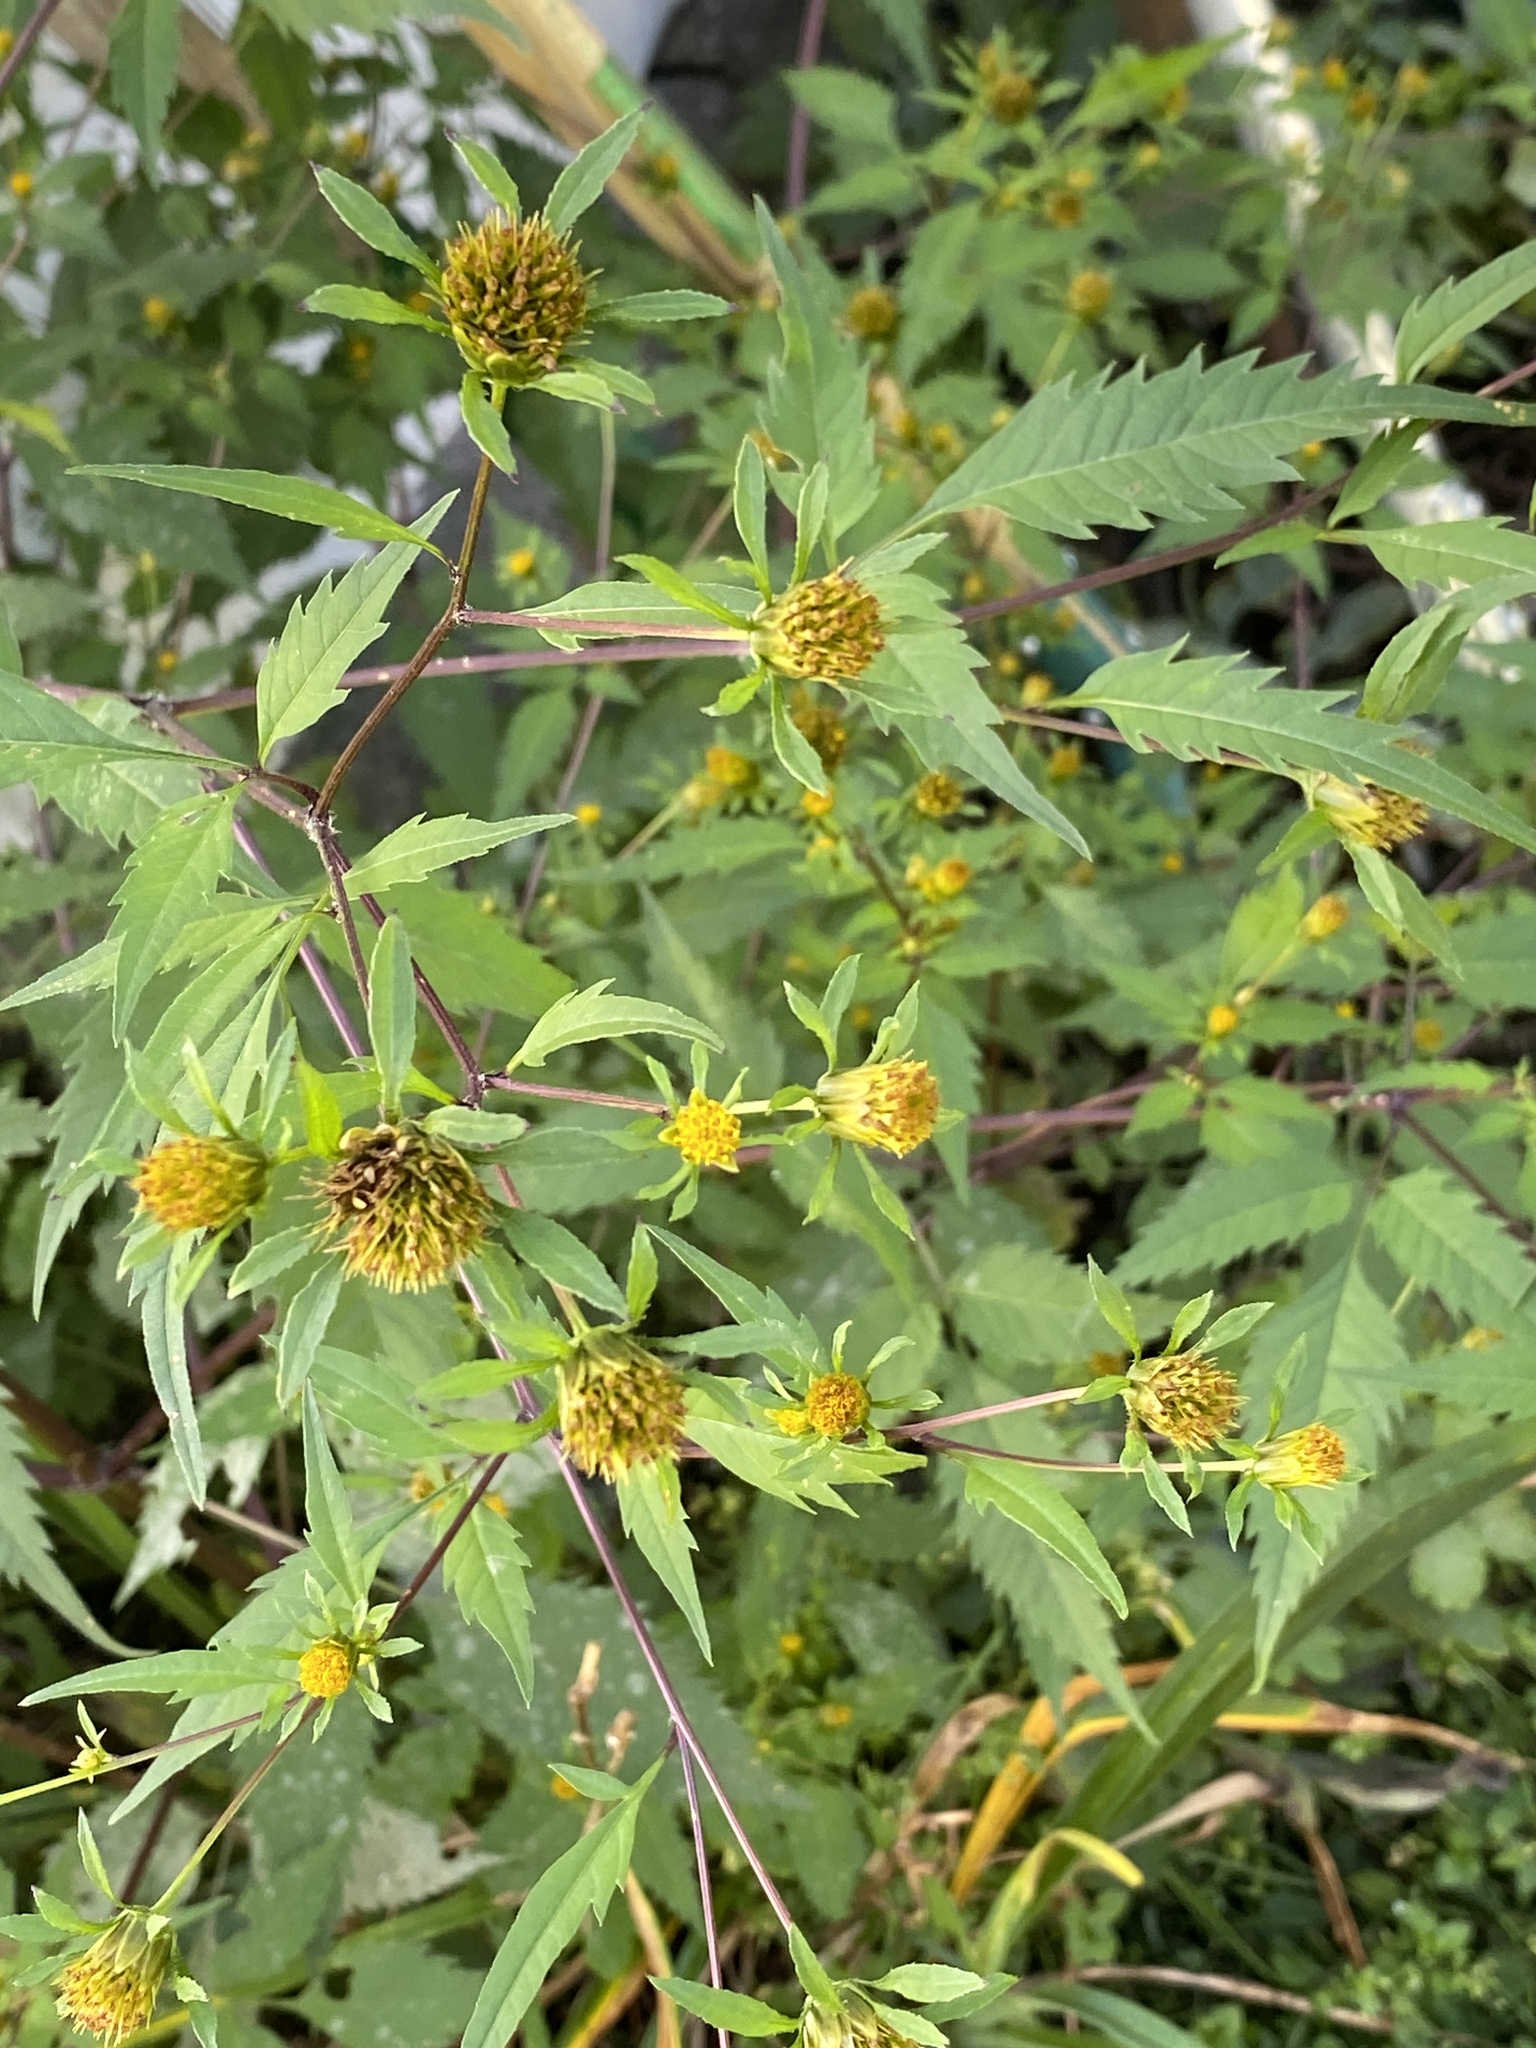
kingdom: Plantae
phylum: Tracheophyta
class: Magnoliopsida
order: Asterales
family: Asteraceae
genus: Bidens
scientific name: Bidens frondosa
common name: Beggarticks
